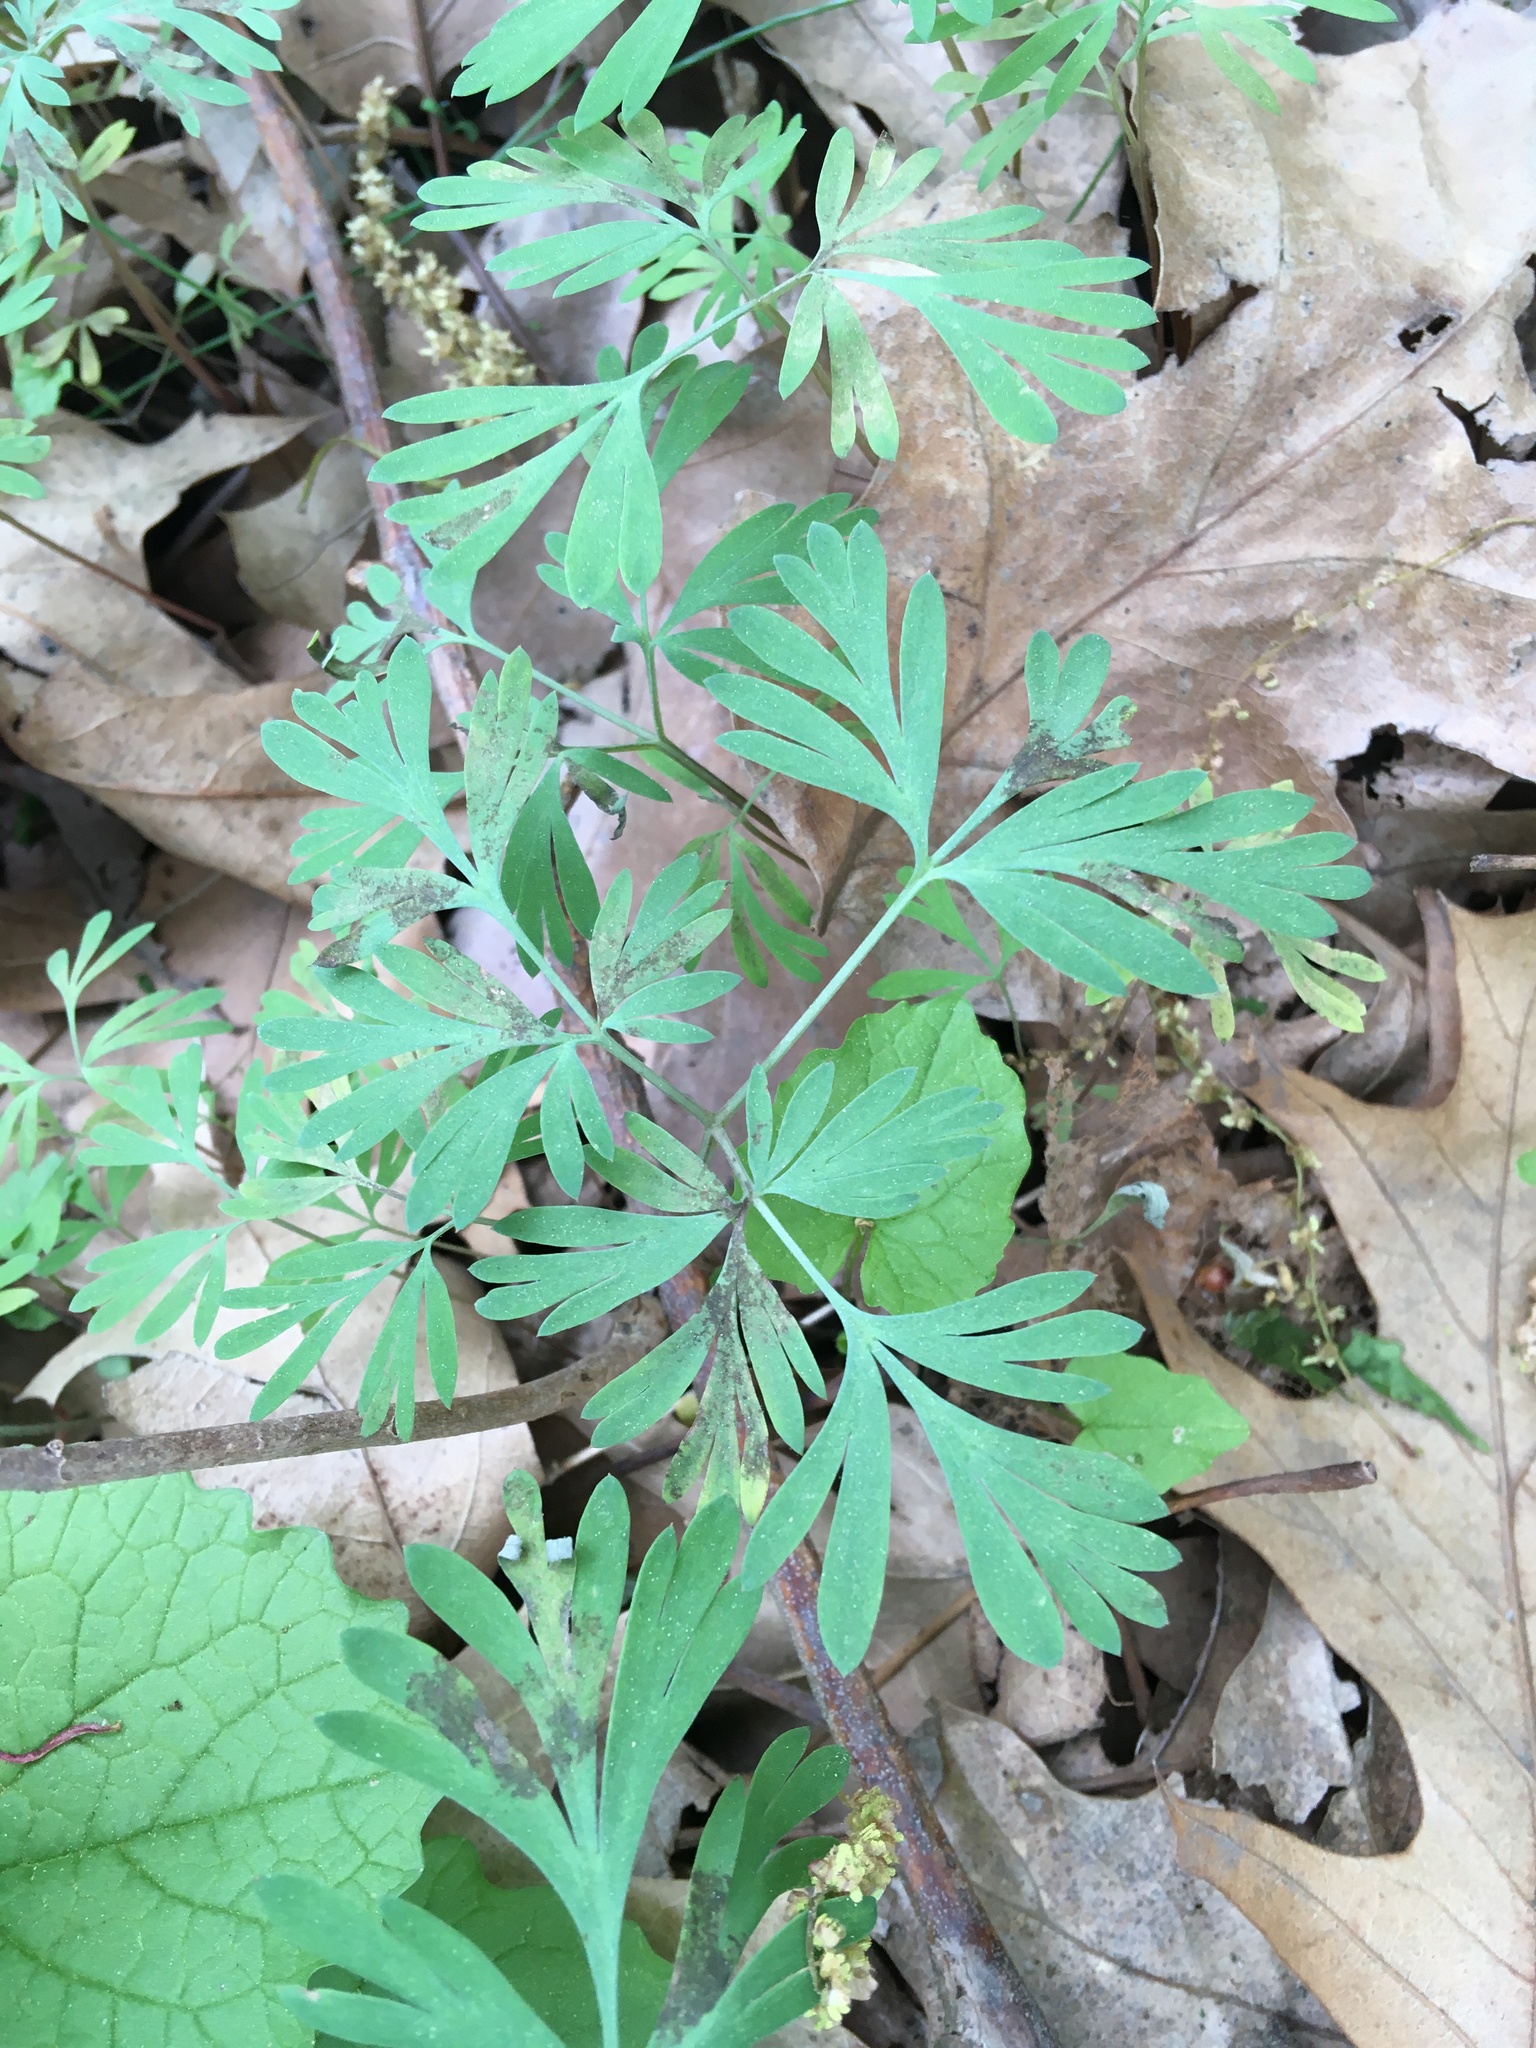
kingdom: Plantae
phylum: Tracheophyta
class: Magnoliopsida
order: Ranunculales
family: Papaveraceae
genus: Dicentra
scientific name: Dicentra cucullaria
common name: Dutchman's breeches
